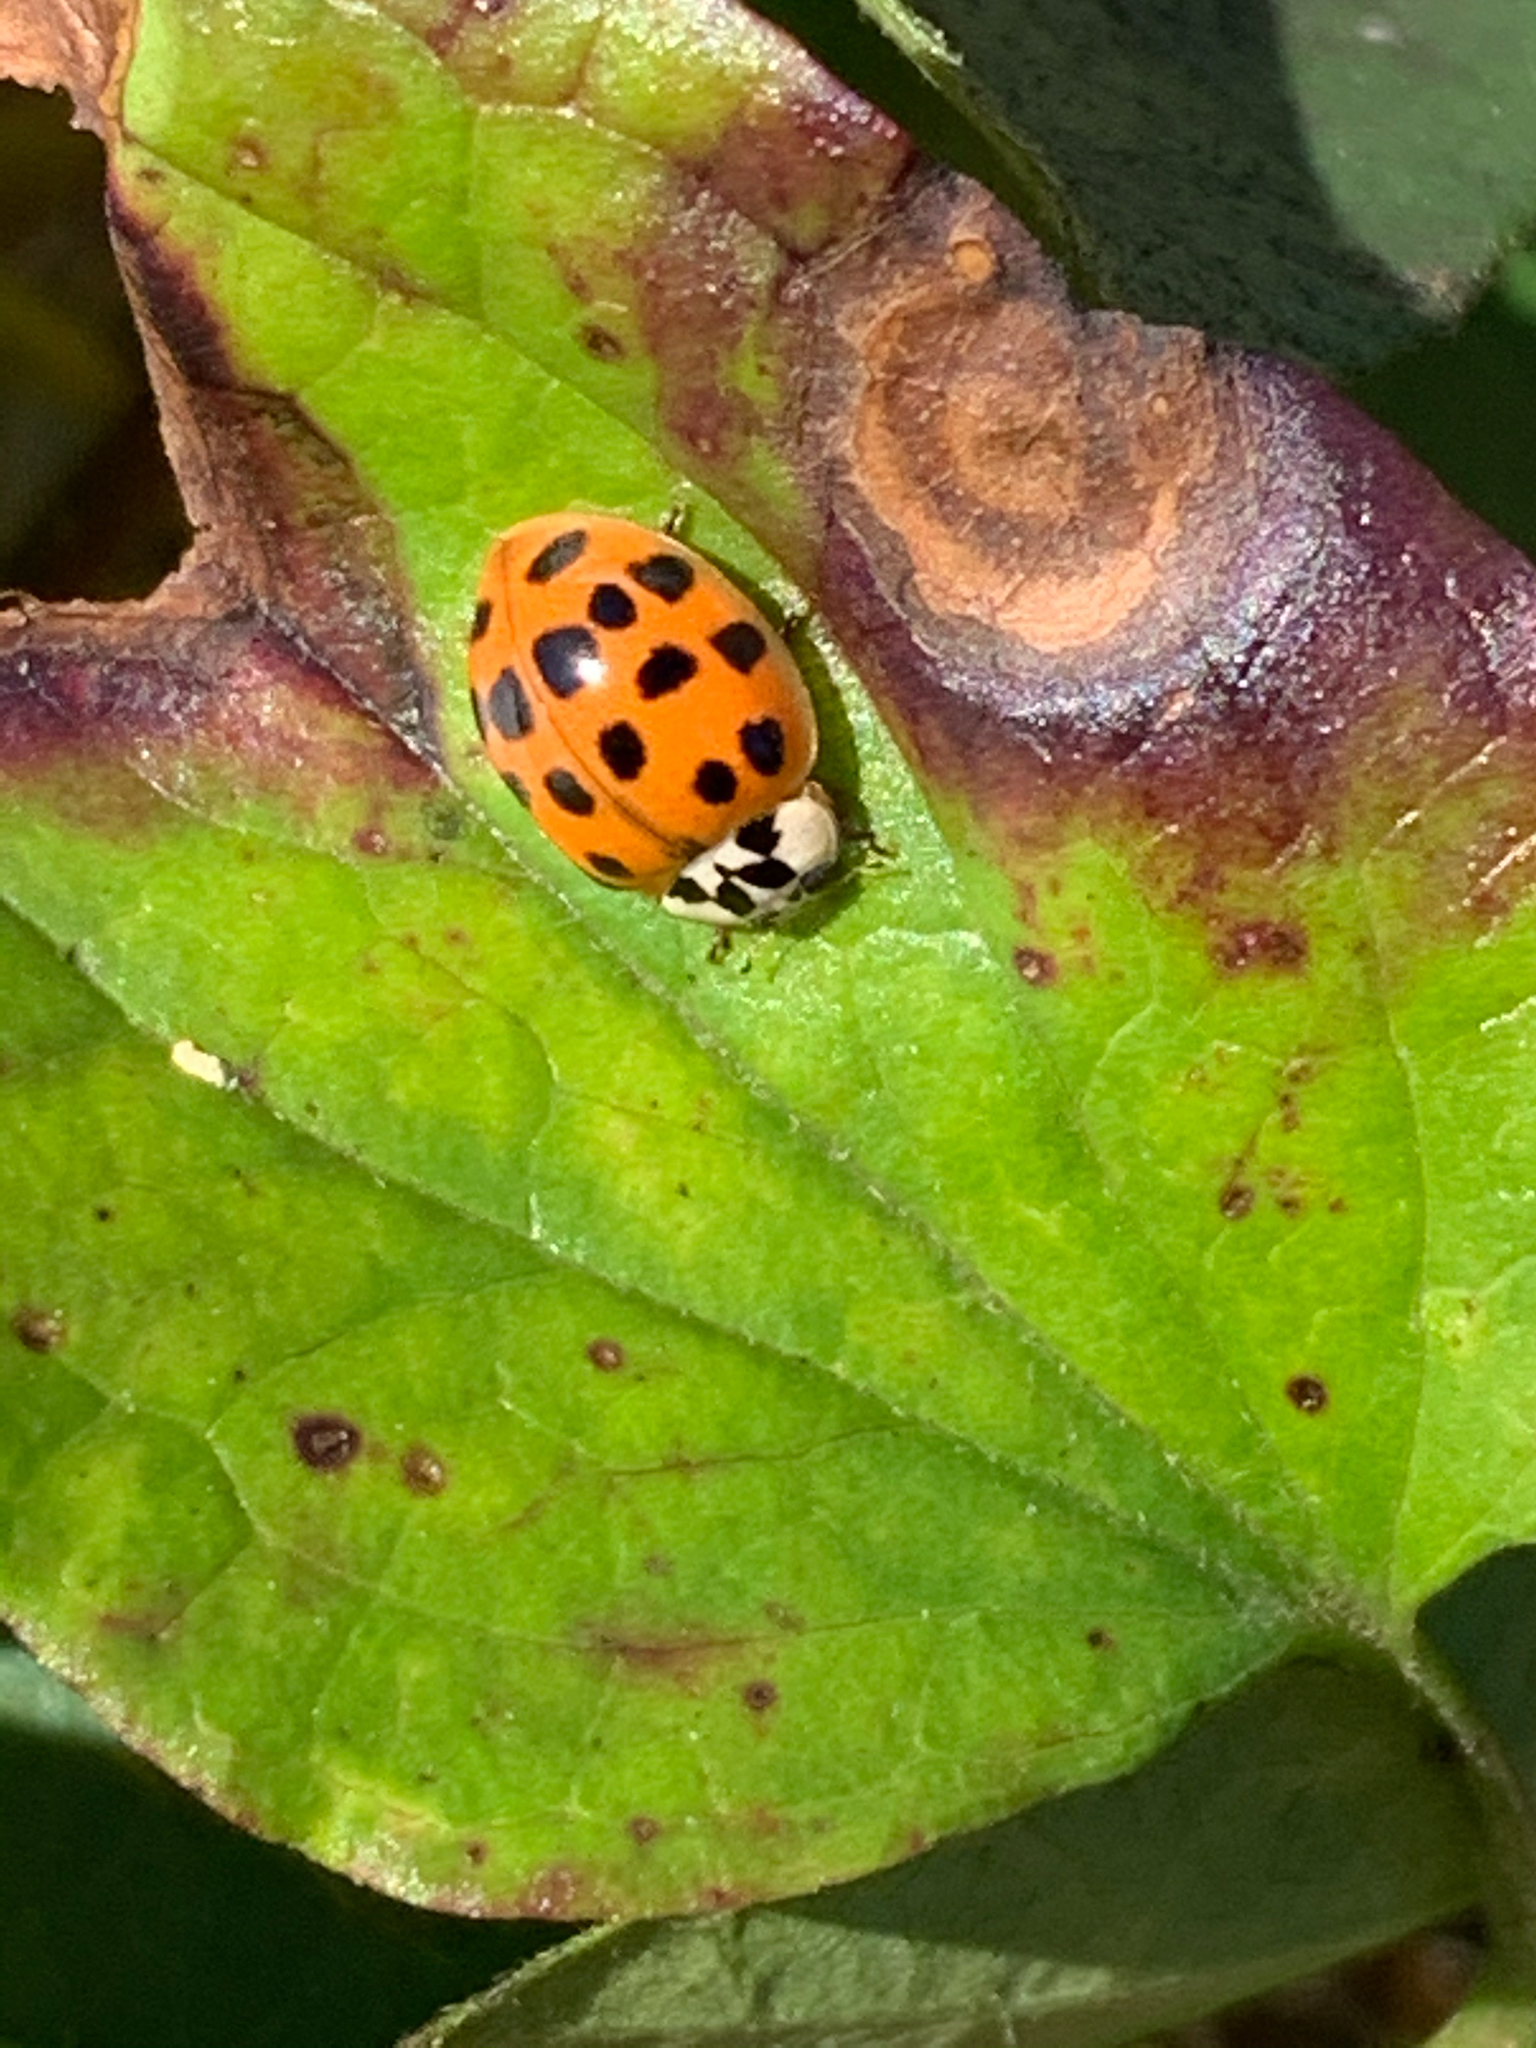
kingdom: Animalia
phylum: Arthropoda
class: Insecta
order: Coleoptera
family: Coccinellidae
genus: Harmonia
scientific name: Harmonia axyridis
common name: Harlequin ladybird
